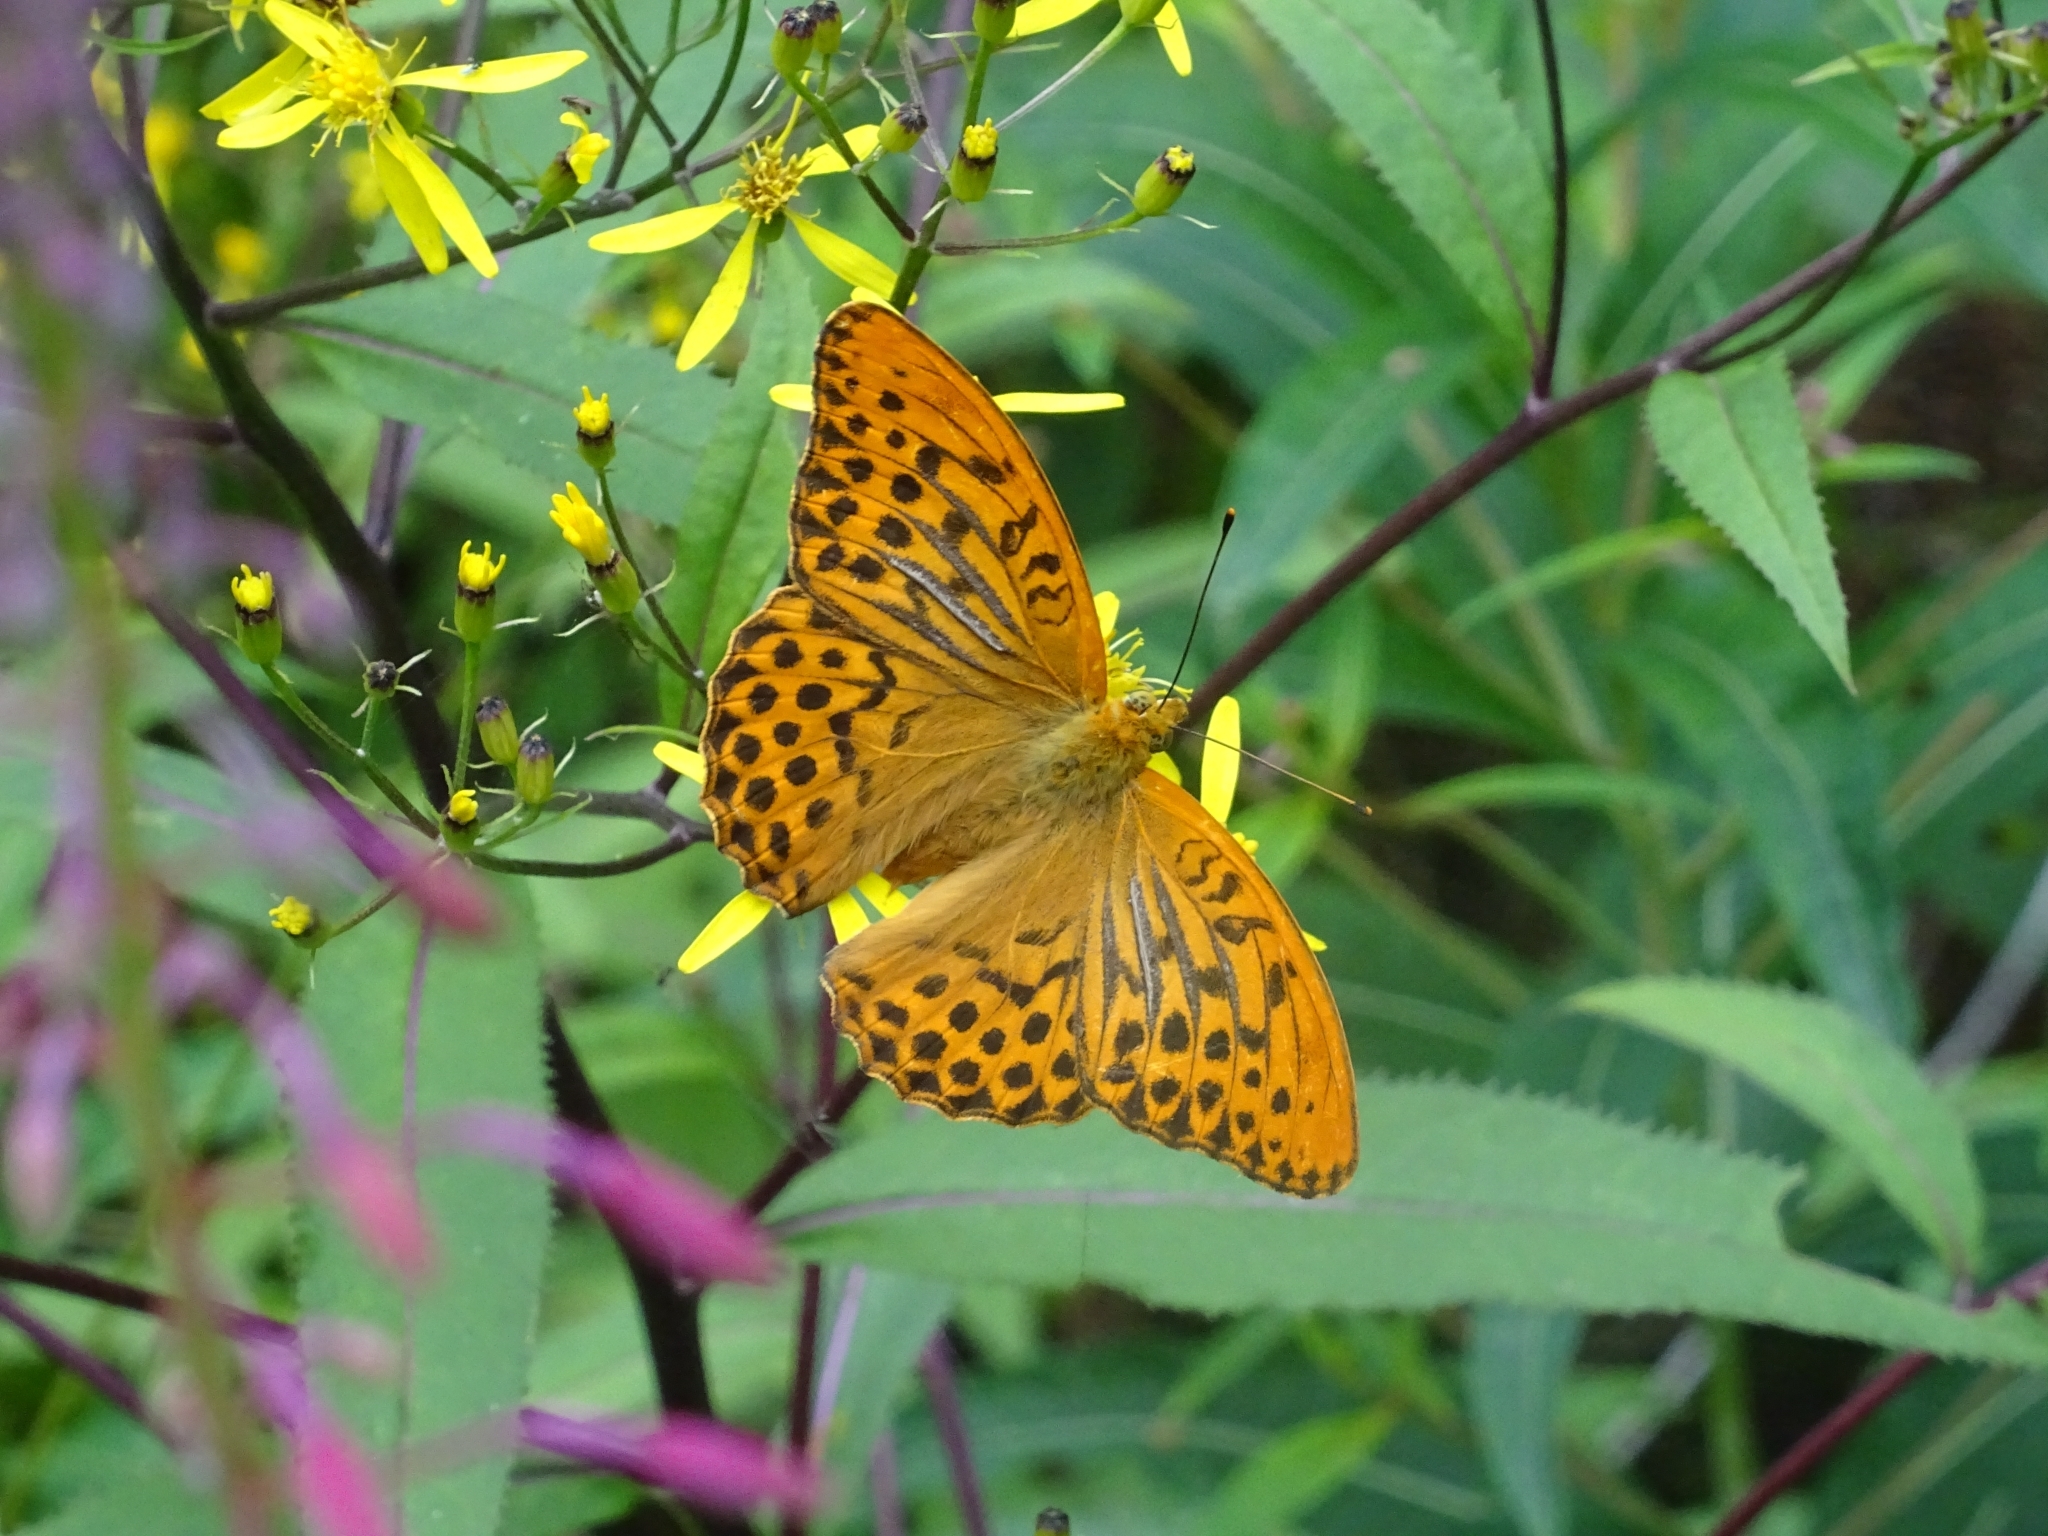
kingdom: Animalia
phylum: Arthropoda
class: Insecta
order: Lepidoptera
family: Nymphalidae
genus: Argynnis
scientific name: Argynnis paphia
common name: Silver-washed fritillary
